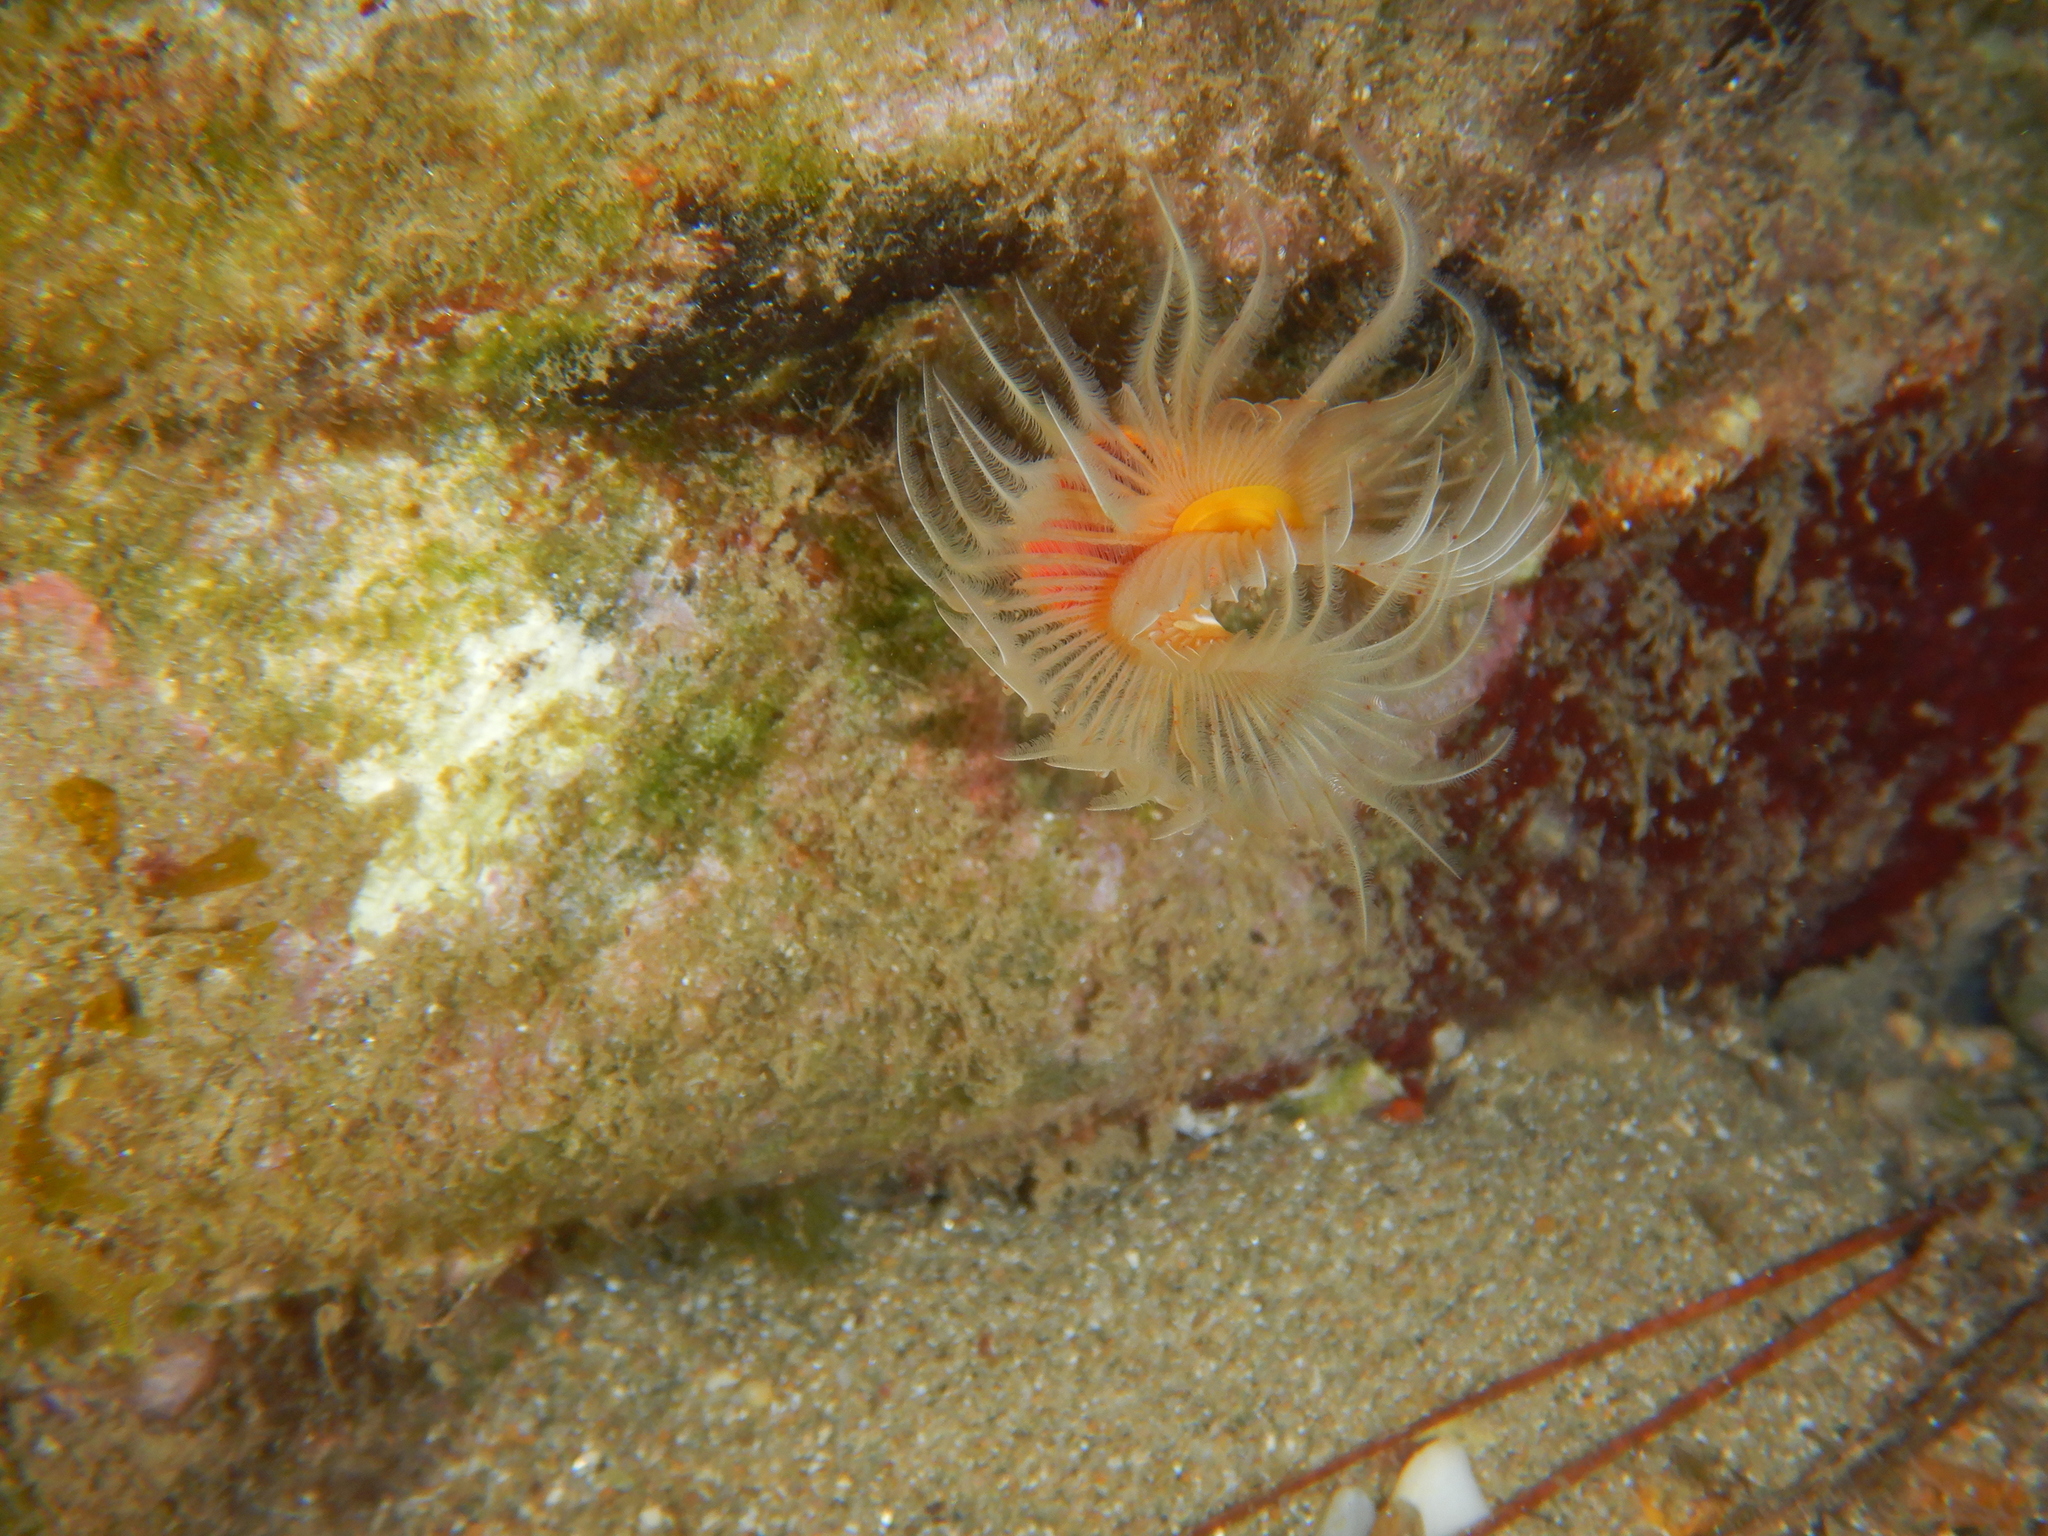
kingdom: Animalia
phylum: Annelida
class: Polychaeta
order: Sabellida
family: Serpulidae
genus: Protula
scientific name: Protula tubularia
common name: Red-spotted horseshoe
